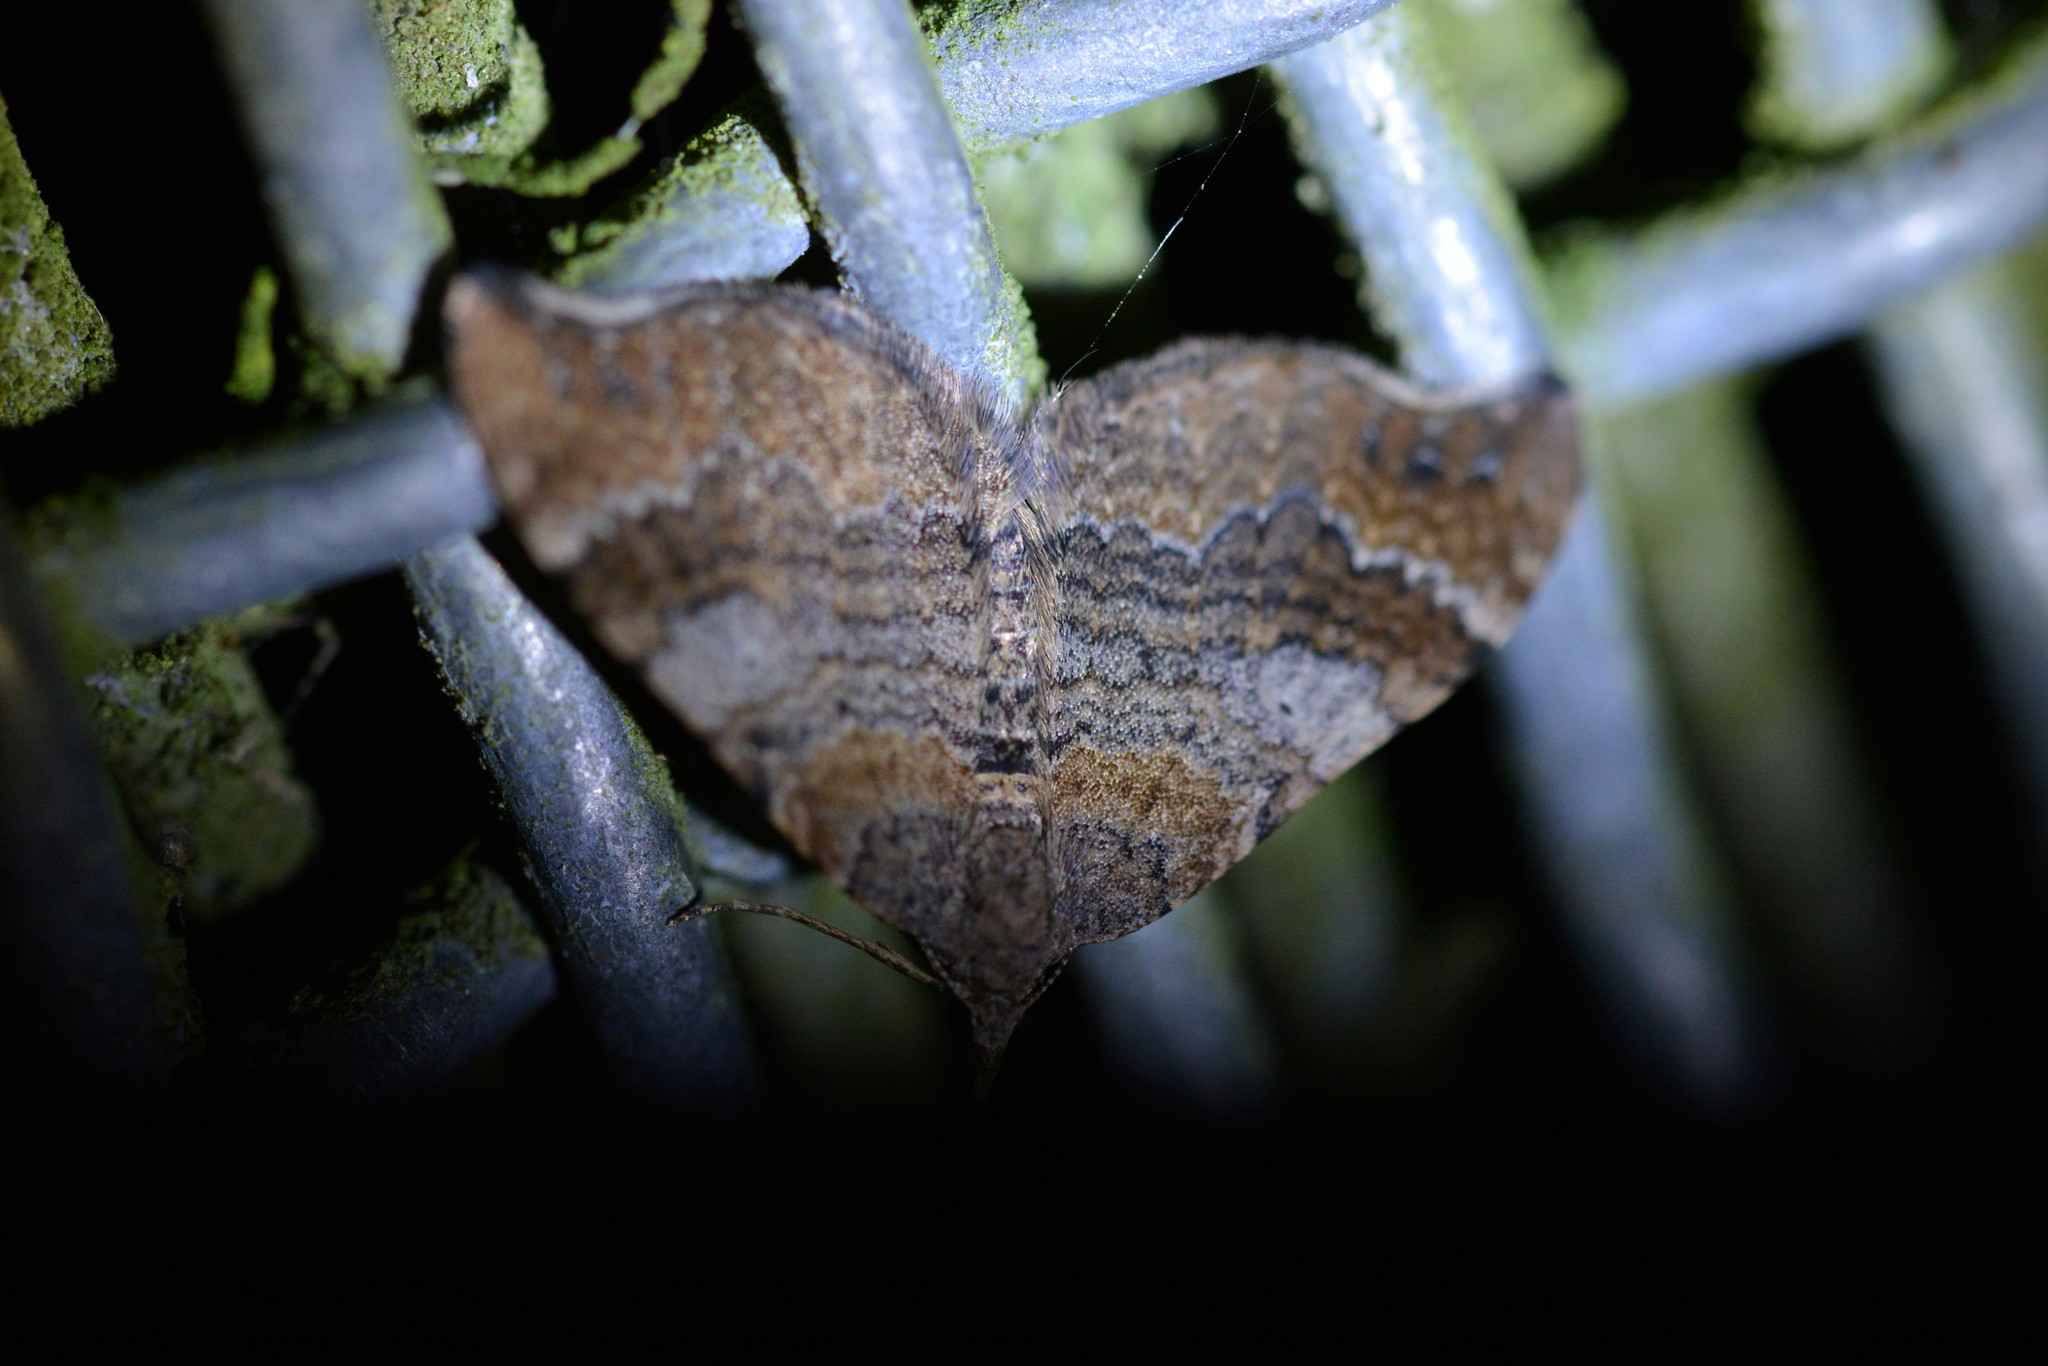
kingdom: Animalia
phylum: Arthropoda
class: Insecta
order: Lepidoptera
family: Geometridae
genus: Homodotis
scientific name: Homodotis megaspilata
